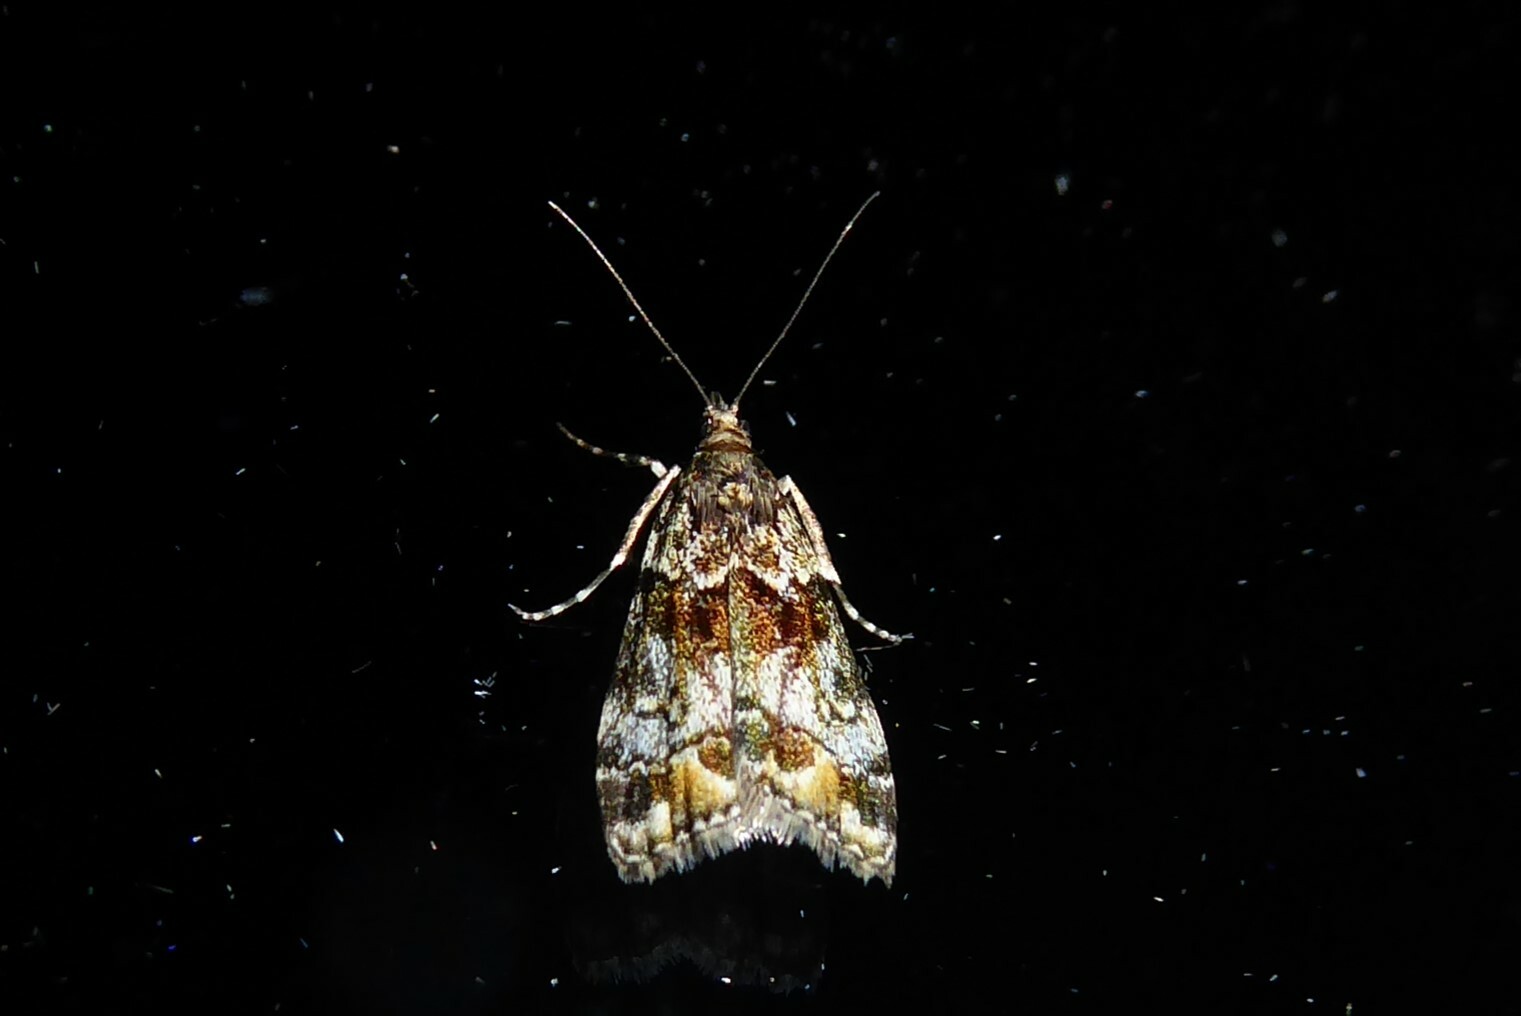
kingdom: Animalia
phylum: Arthropoda
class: Insecta
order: Lepidoptera
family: Crambidae
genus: Eudonia
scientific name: Eudonia minualis
